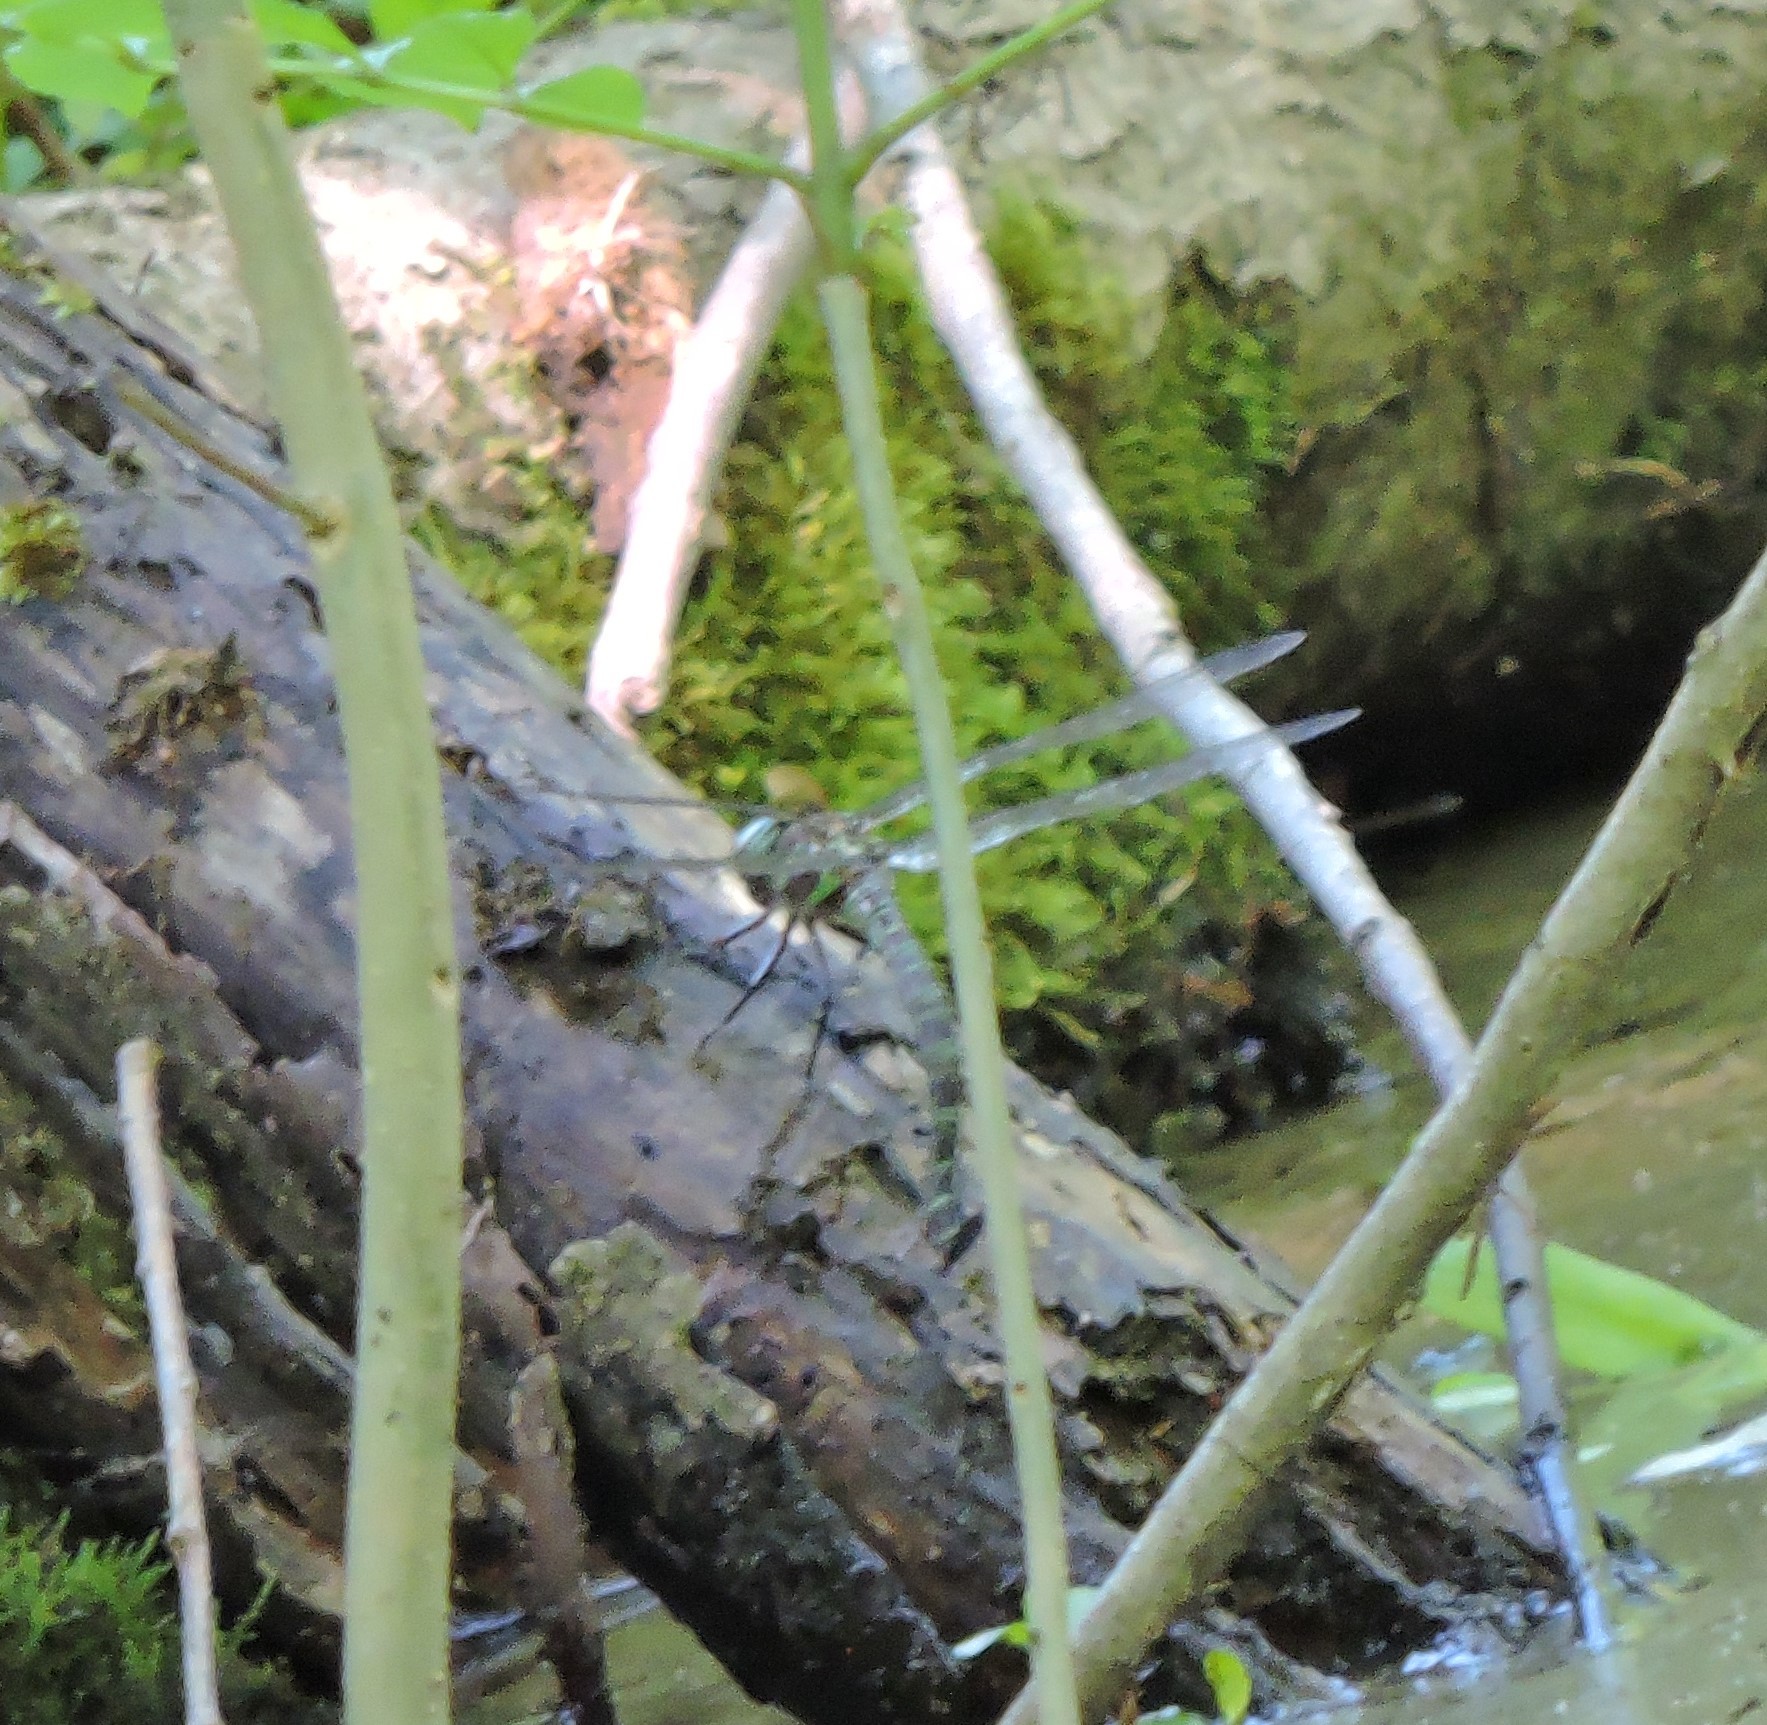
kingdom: Animalia
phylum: Arthropoda
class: Insecta
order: Odonata
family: Aeshnidae
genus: Epiaeschna
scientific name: Epiaeschna heros
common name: Swamp darner
